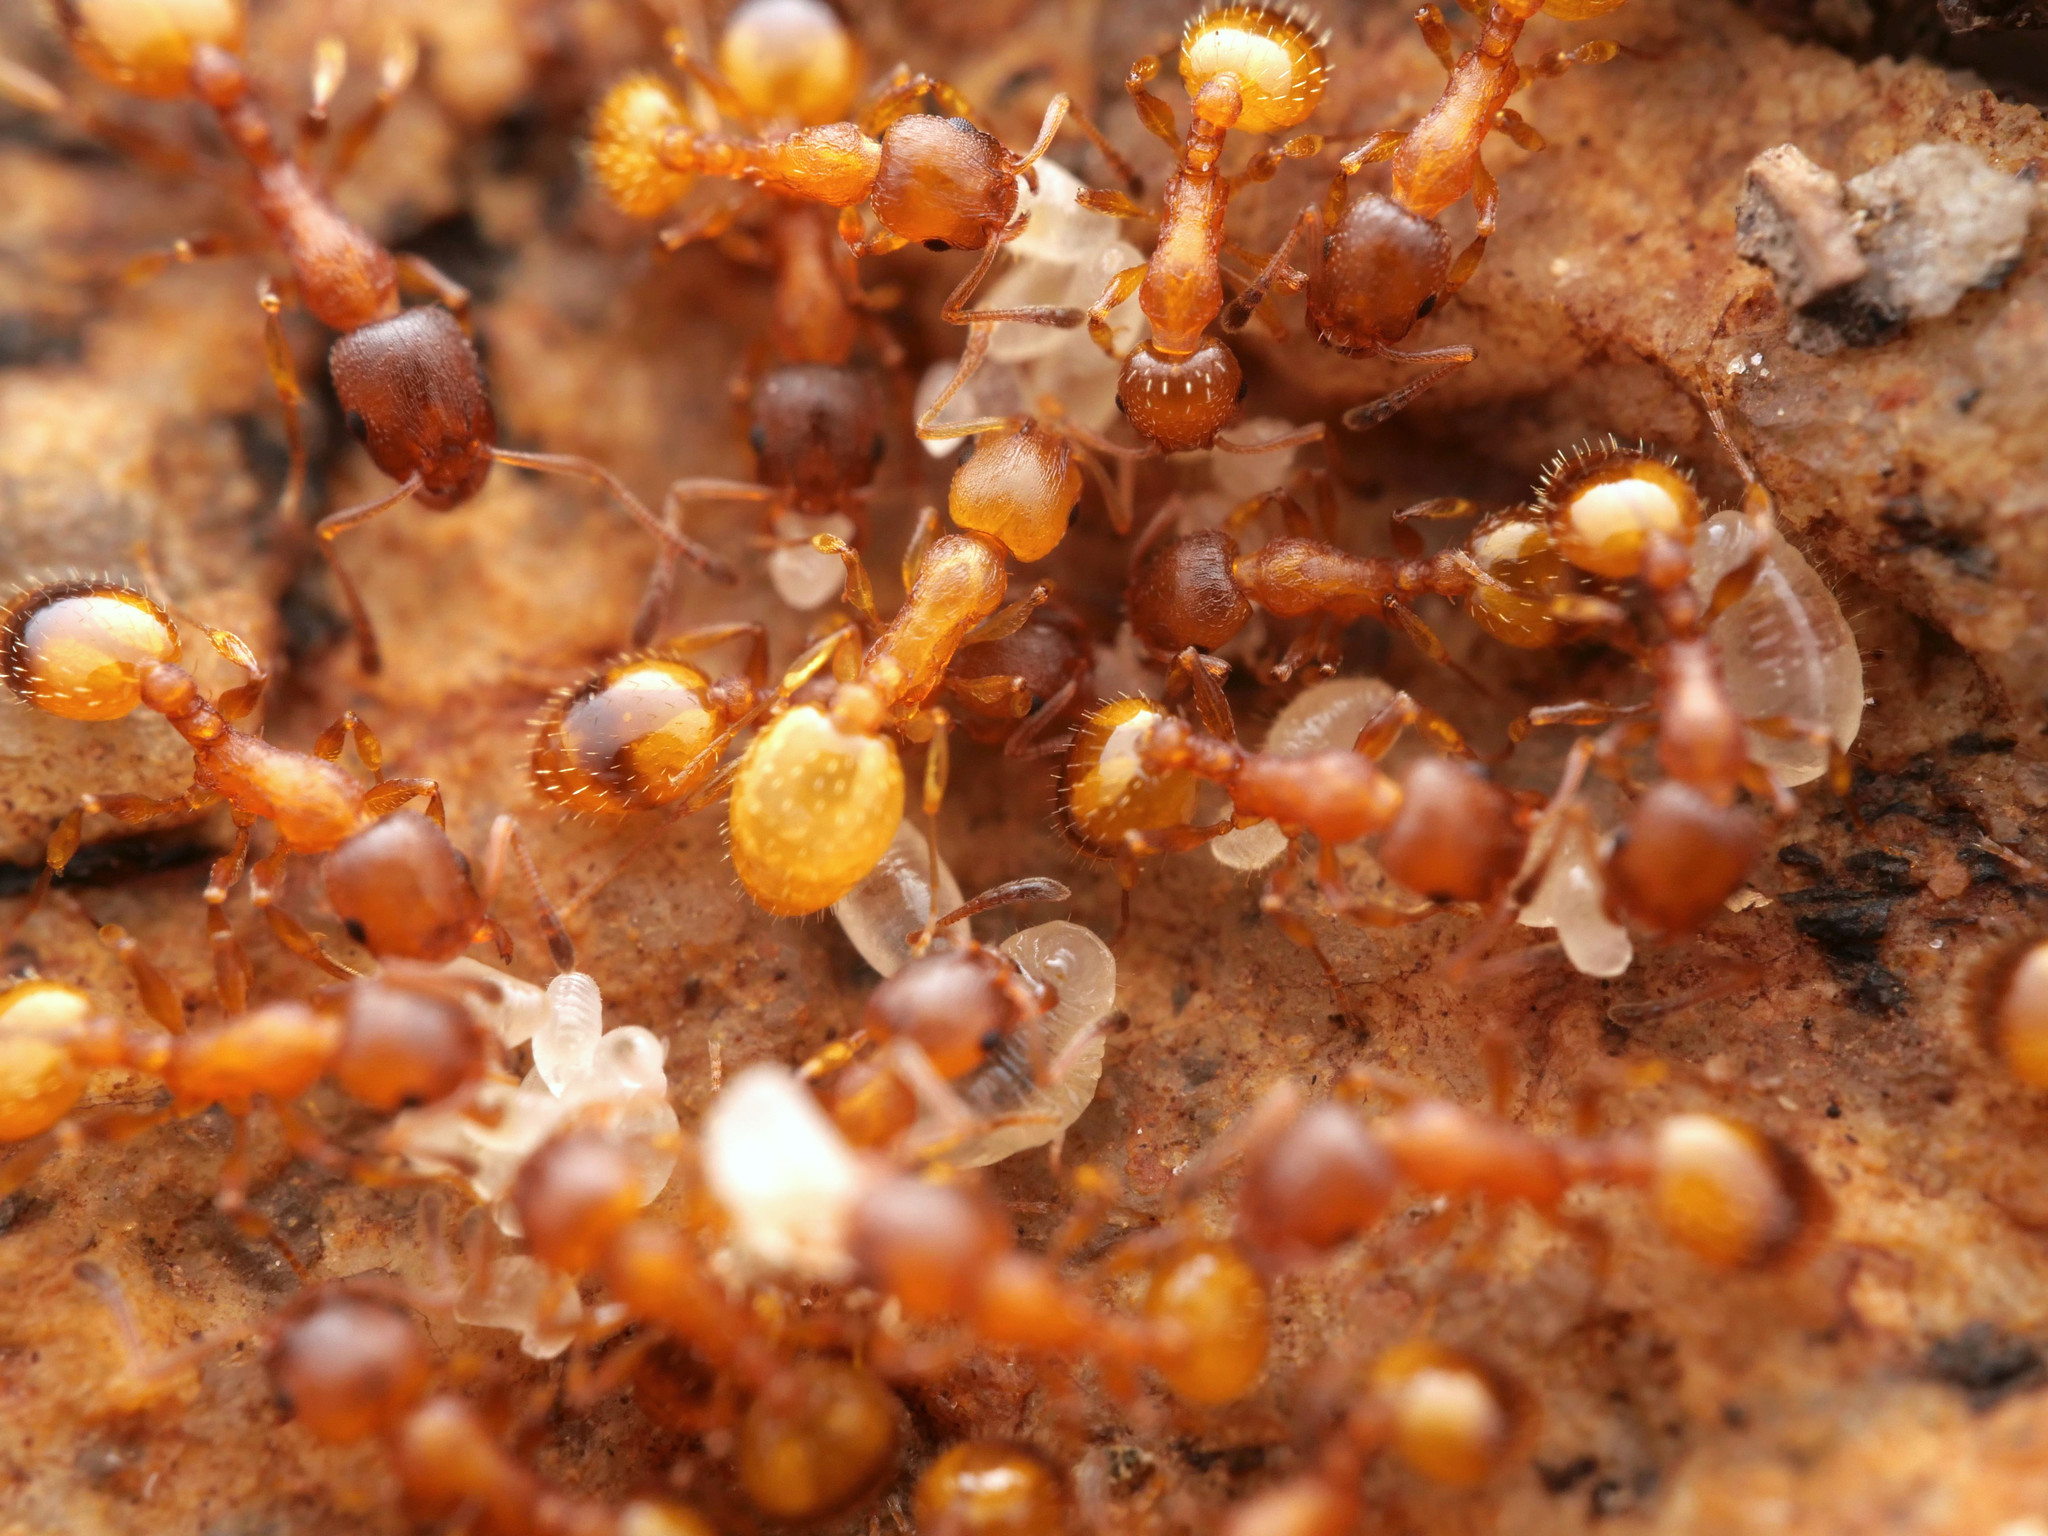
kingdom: Animalia
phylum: Arthropoda
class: Insecta
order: Hymenoptera
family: Formicidae
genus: Leptothorax
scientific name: Leptothorax unifasciatus
